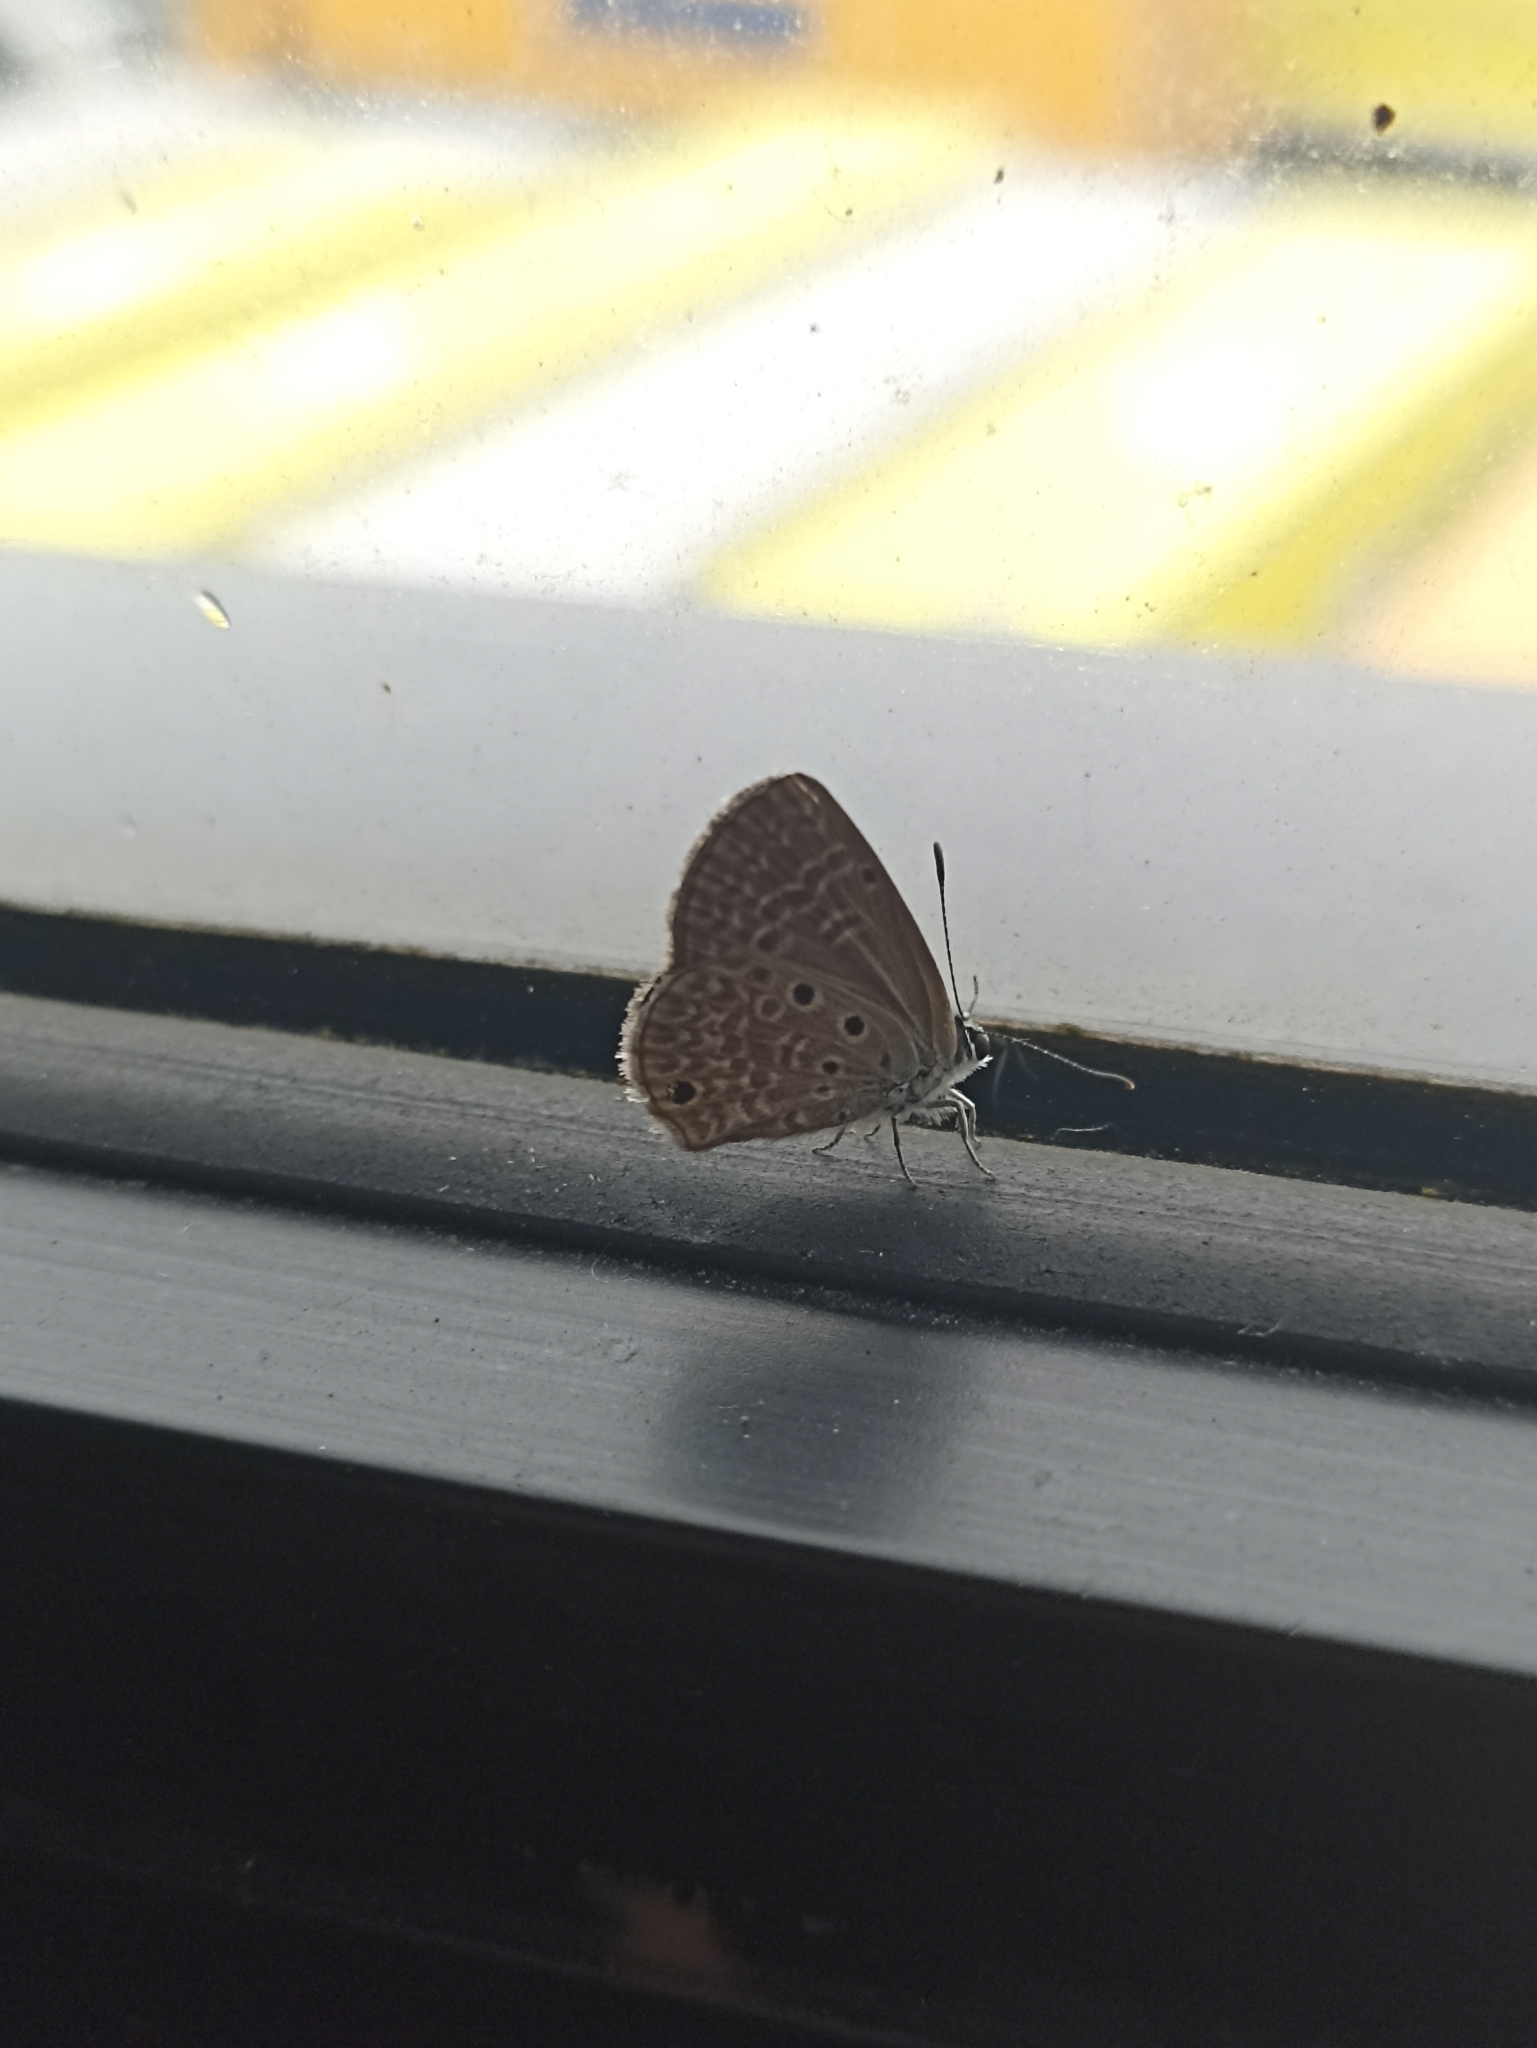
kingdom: Animalia
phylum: Arthropoda
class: Insecta
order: Lepidoptera
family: Lycaenidae
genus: Hemiargus
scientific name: Hemiargus hanno
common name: Common blue
